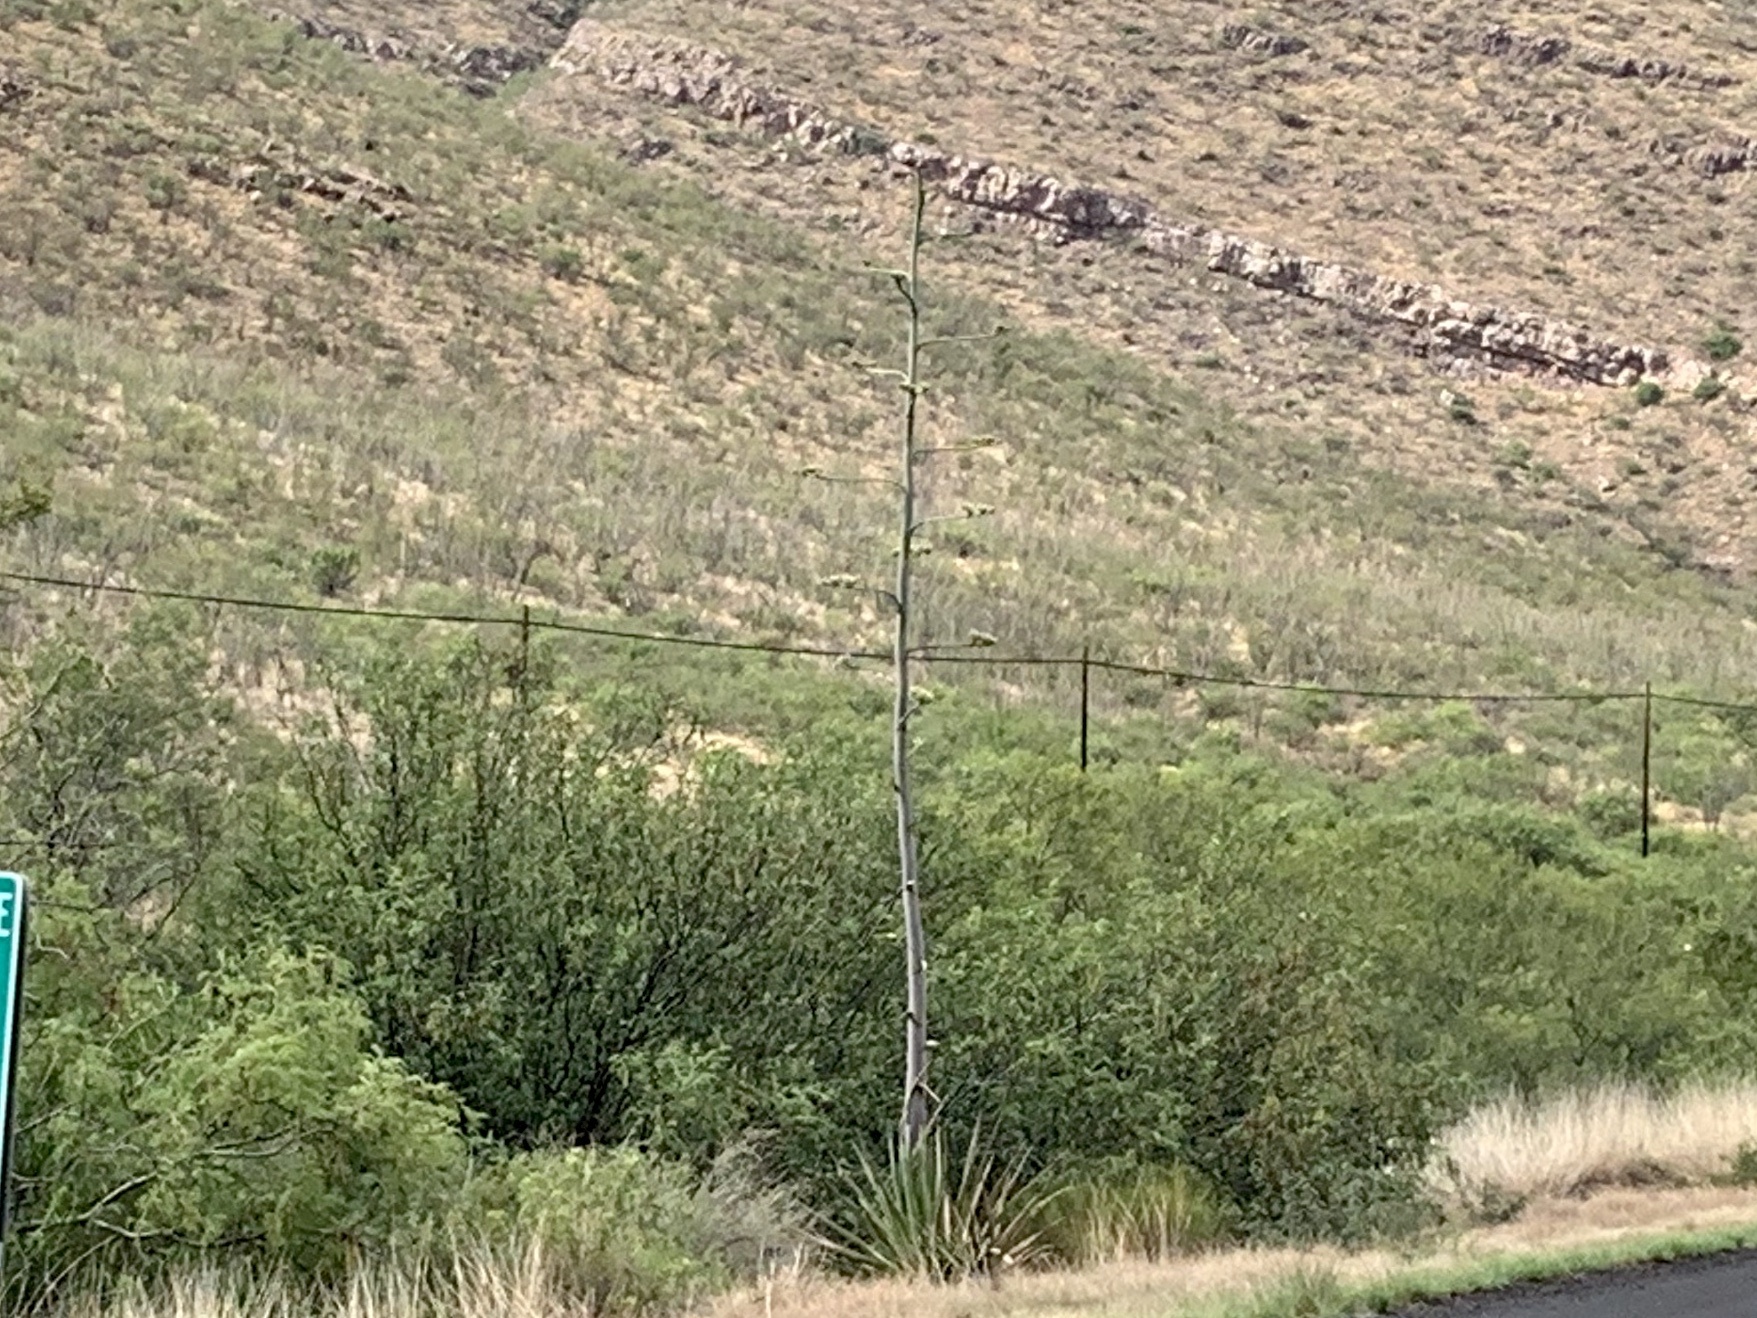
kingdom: Plantae
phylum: Tracheophyta
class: Liliopsida
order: Asparagales
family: Asparagaceae
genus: Agave
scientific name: Agave palmeri
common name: Palmer agave
